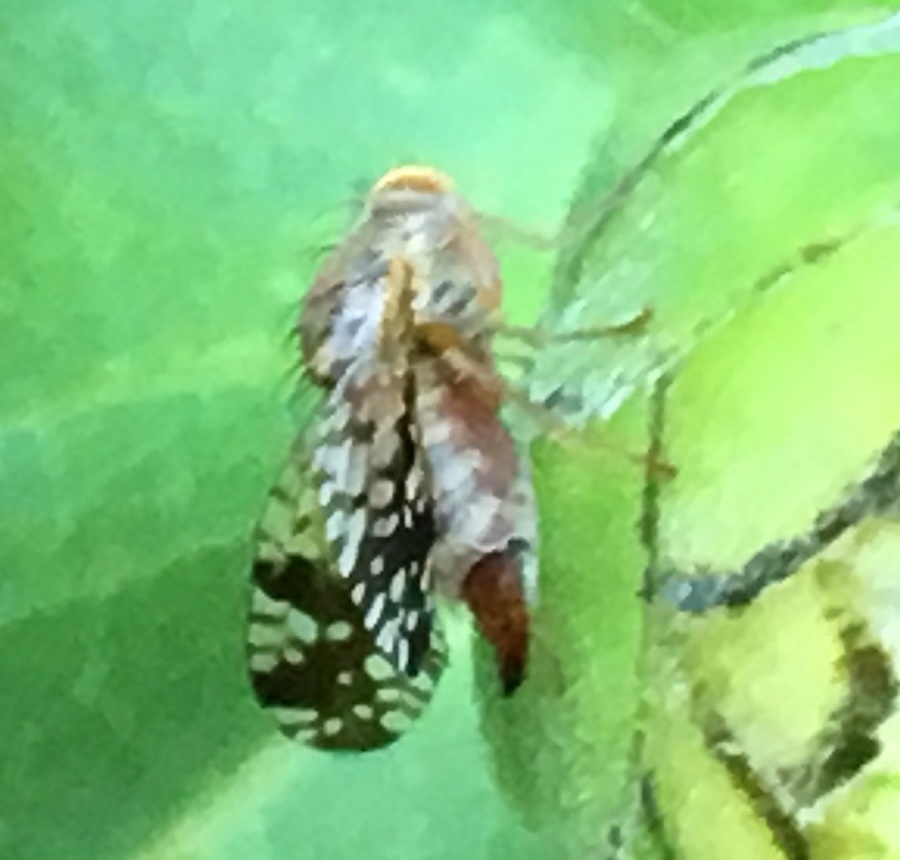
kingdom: Animalia
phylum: Arthropoda
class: Insecta
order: Diptera
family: Tephritidae
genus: Neotephritis
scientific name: Neotephritis finalis
